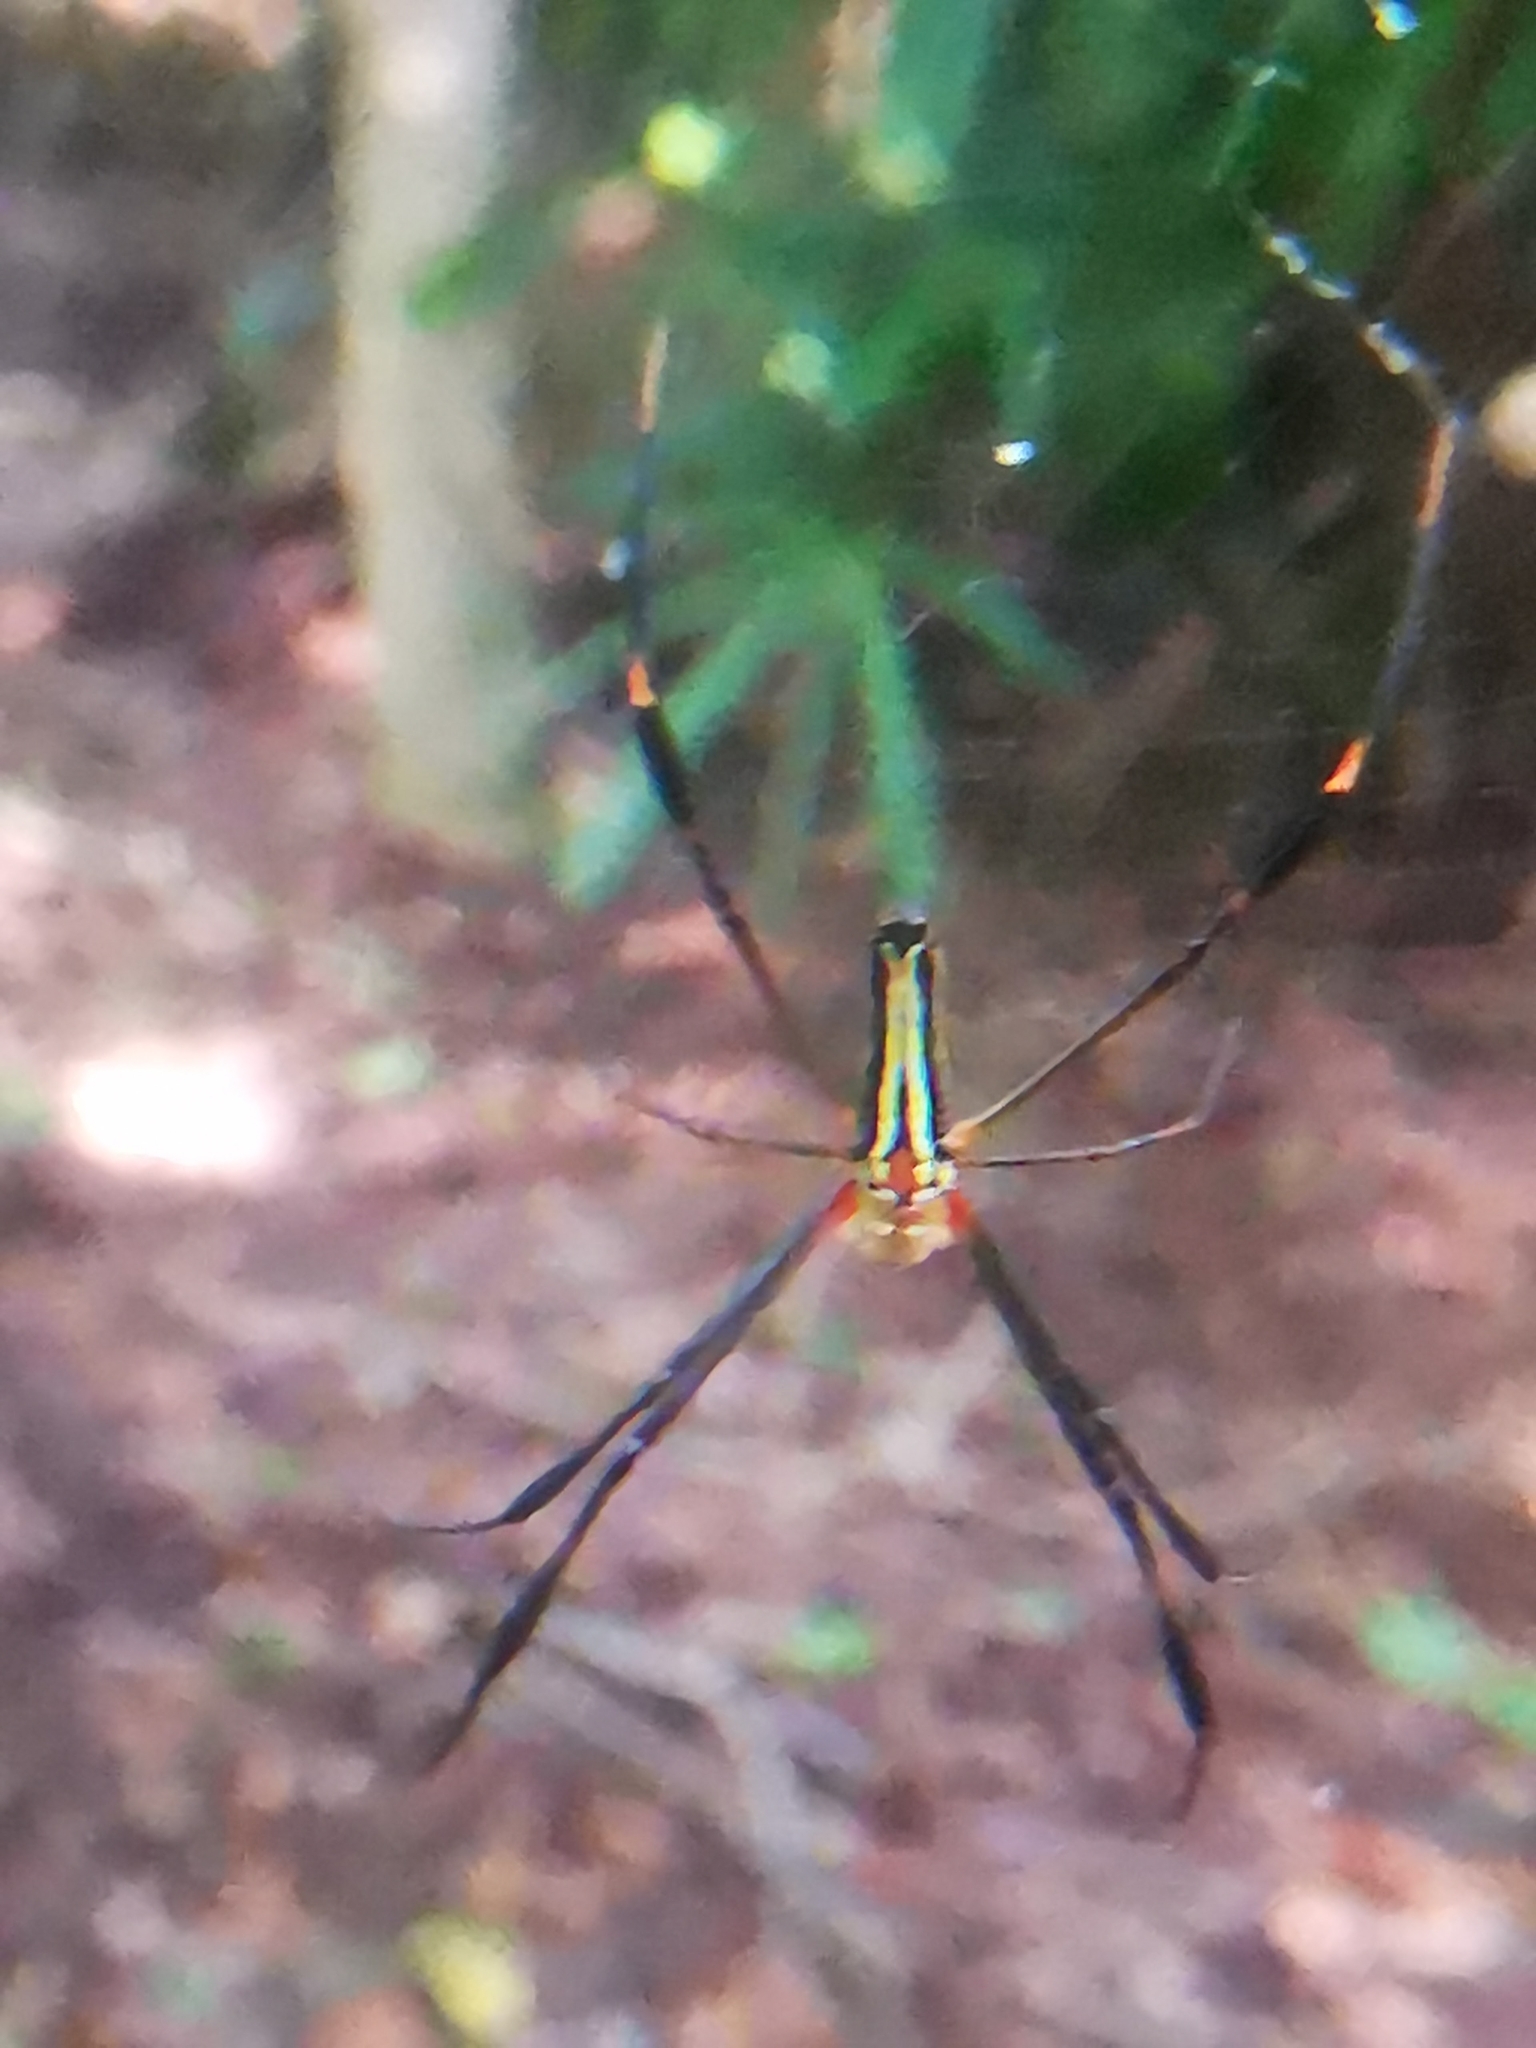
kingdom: Animalia
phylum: Arthropoda
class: Arachnida
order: Araneae
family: Araneidae
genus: Nephila
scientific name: Nephila pilipes
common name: Giant golden orb weaver
